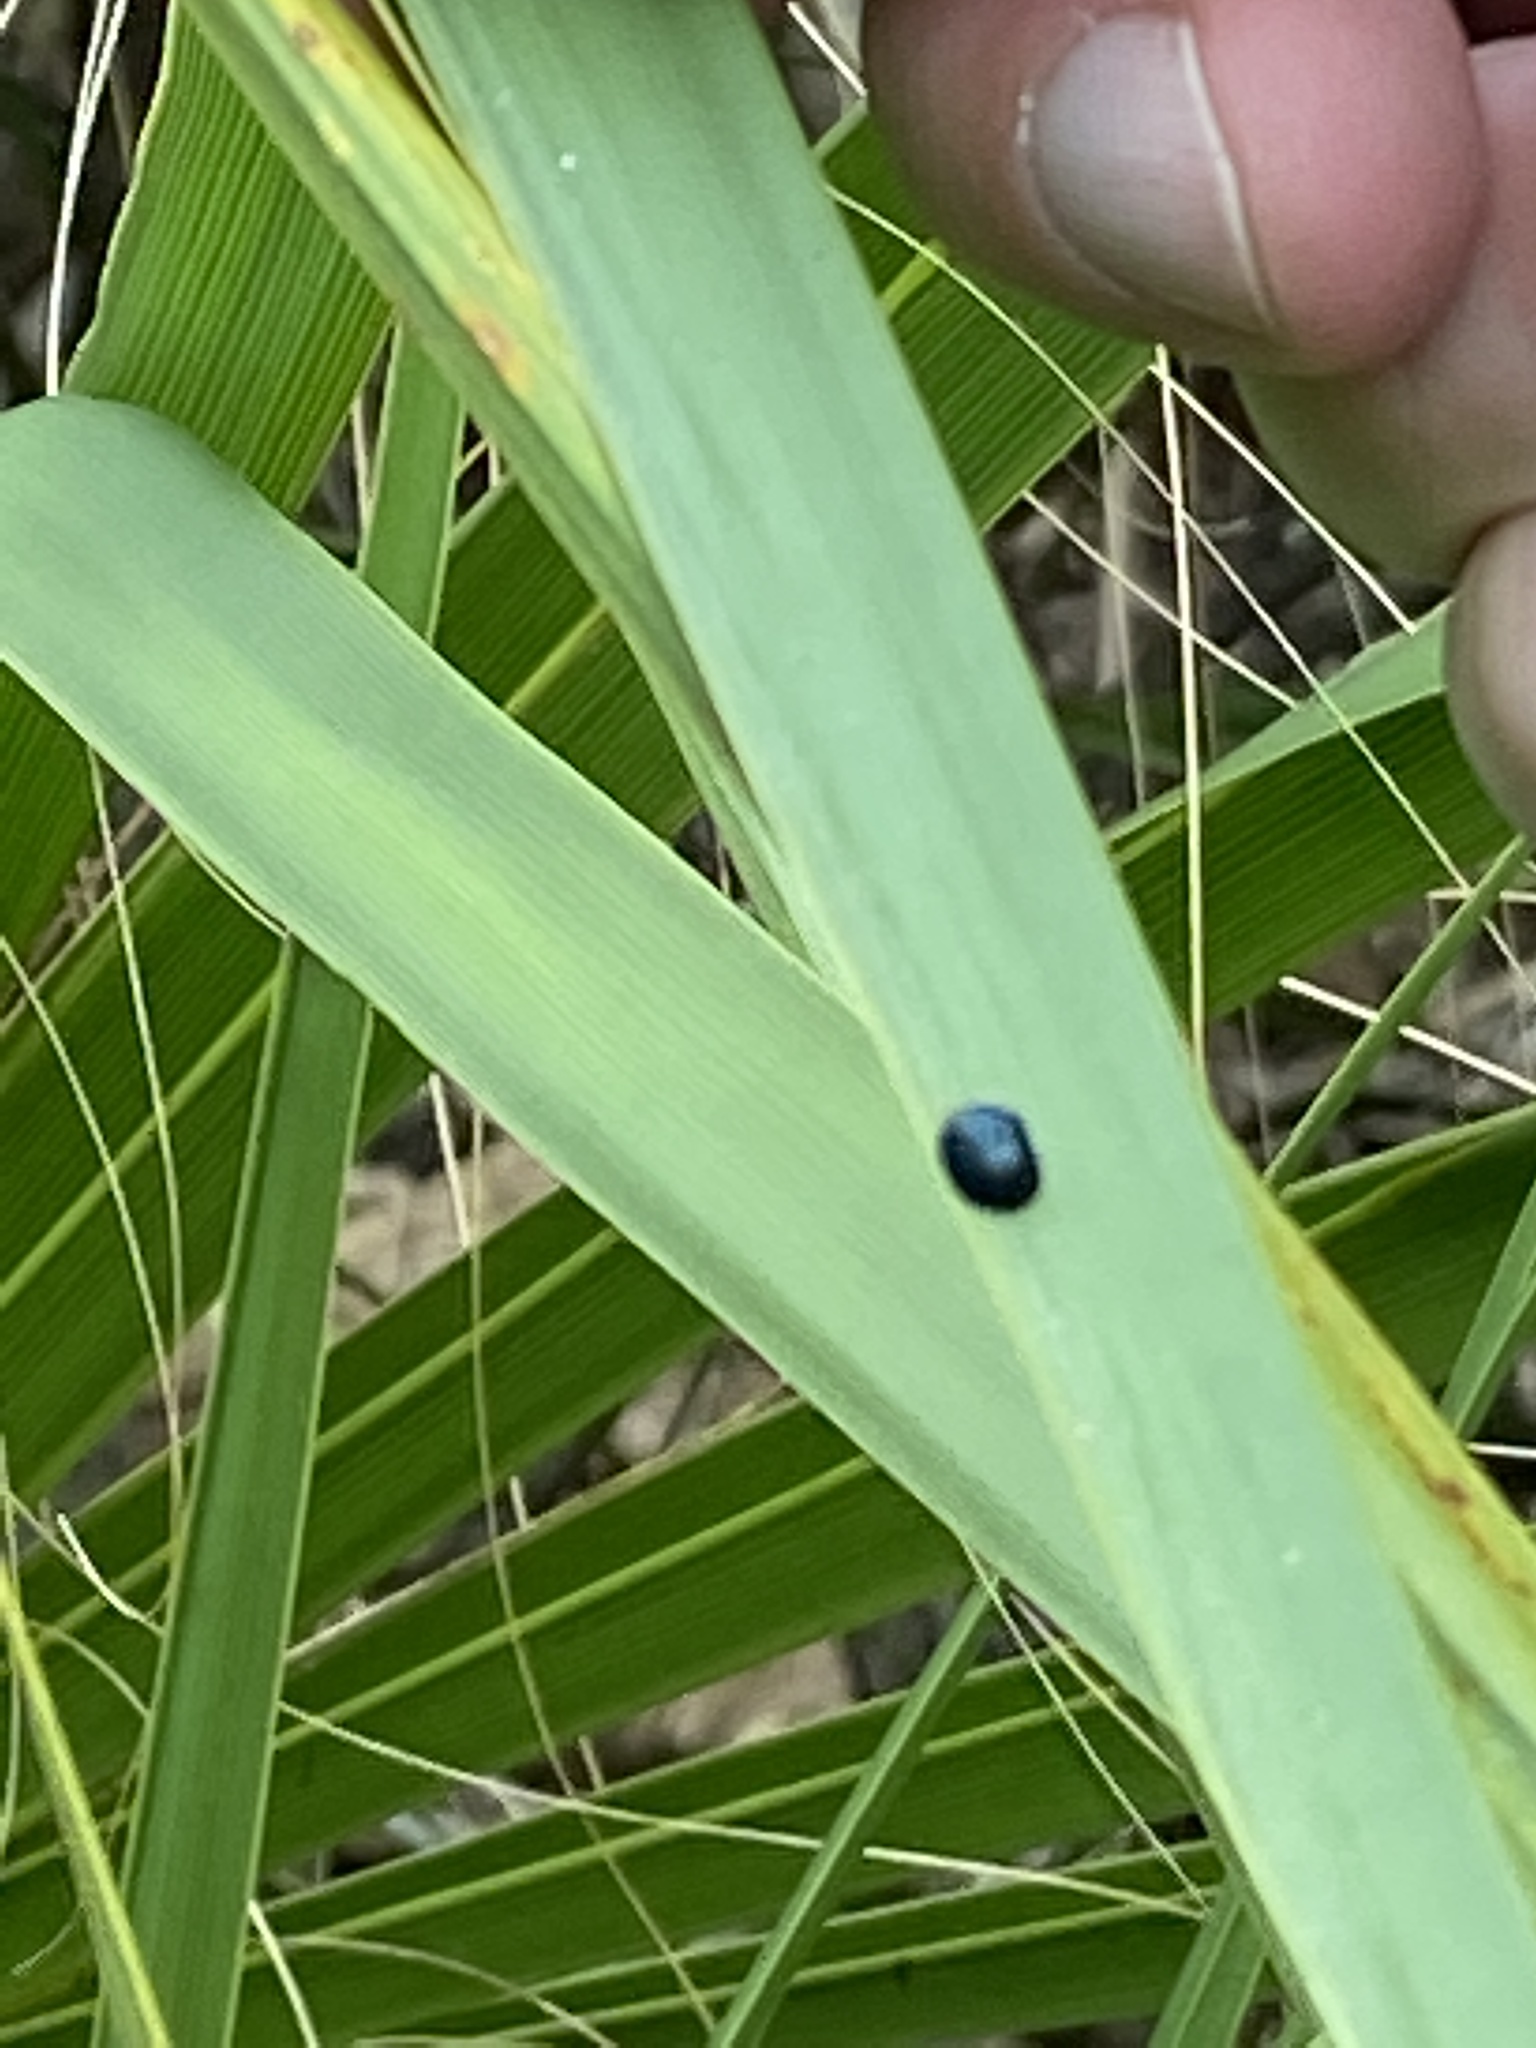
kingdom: Animalia
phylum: Arthropoda
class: Insecta
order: Coleoptera
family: Chrysomelidae
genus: Hemisphaerota
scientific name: Hemisphaerota cyanea
